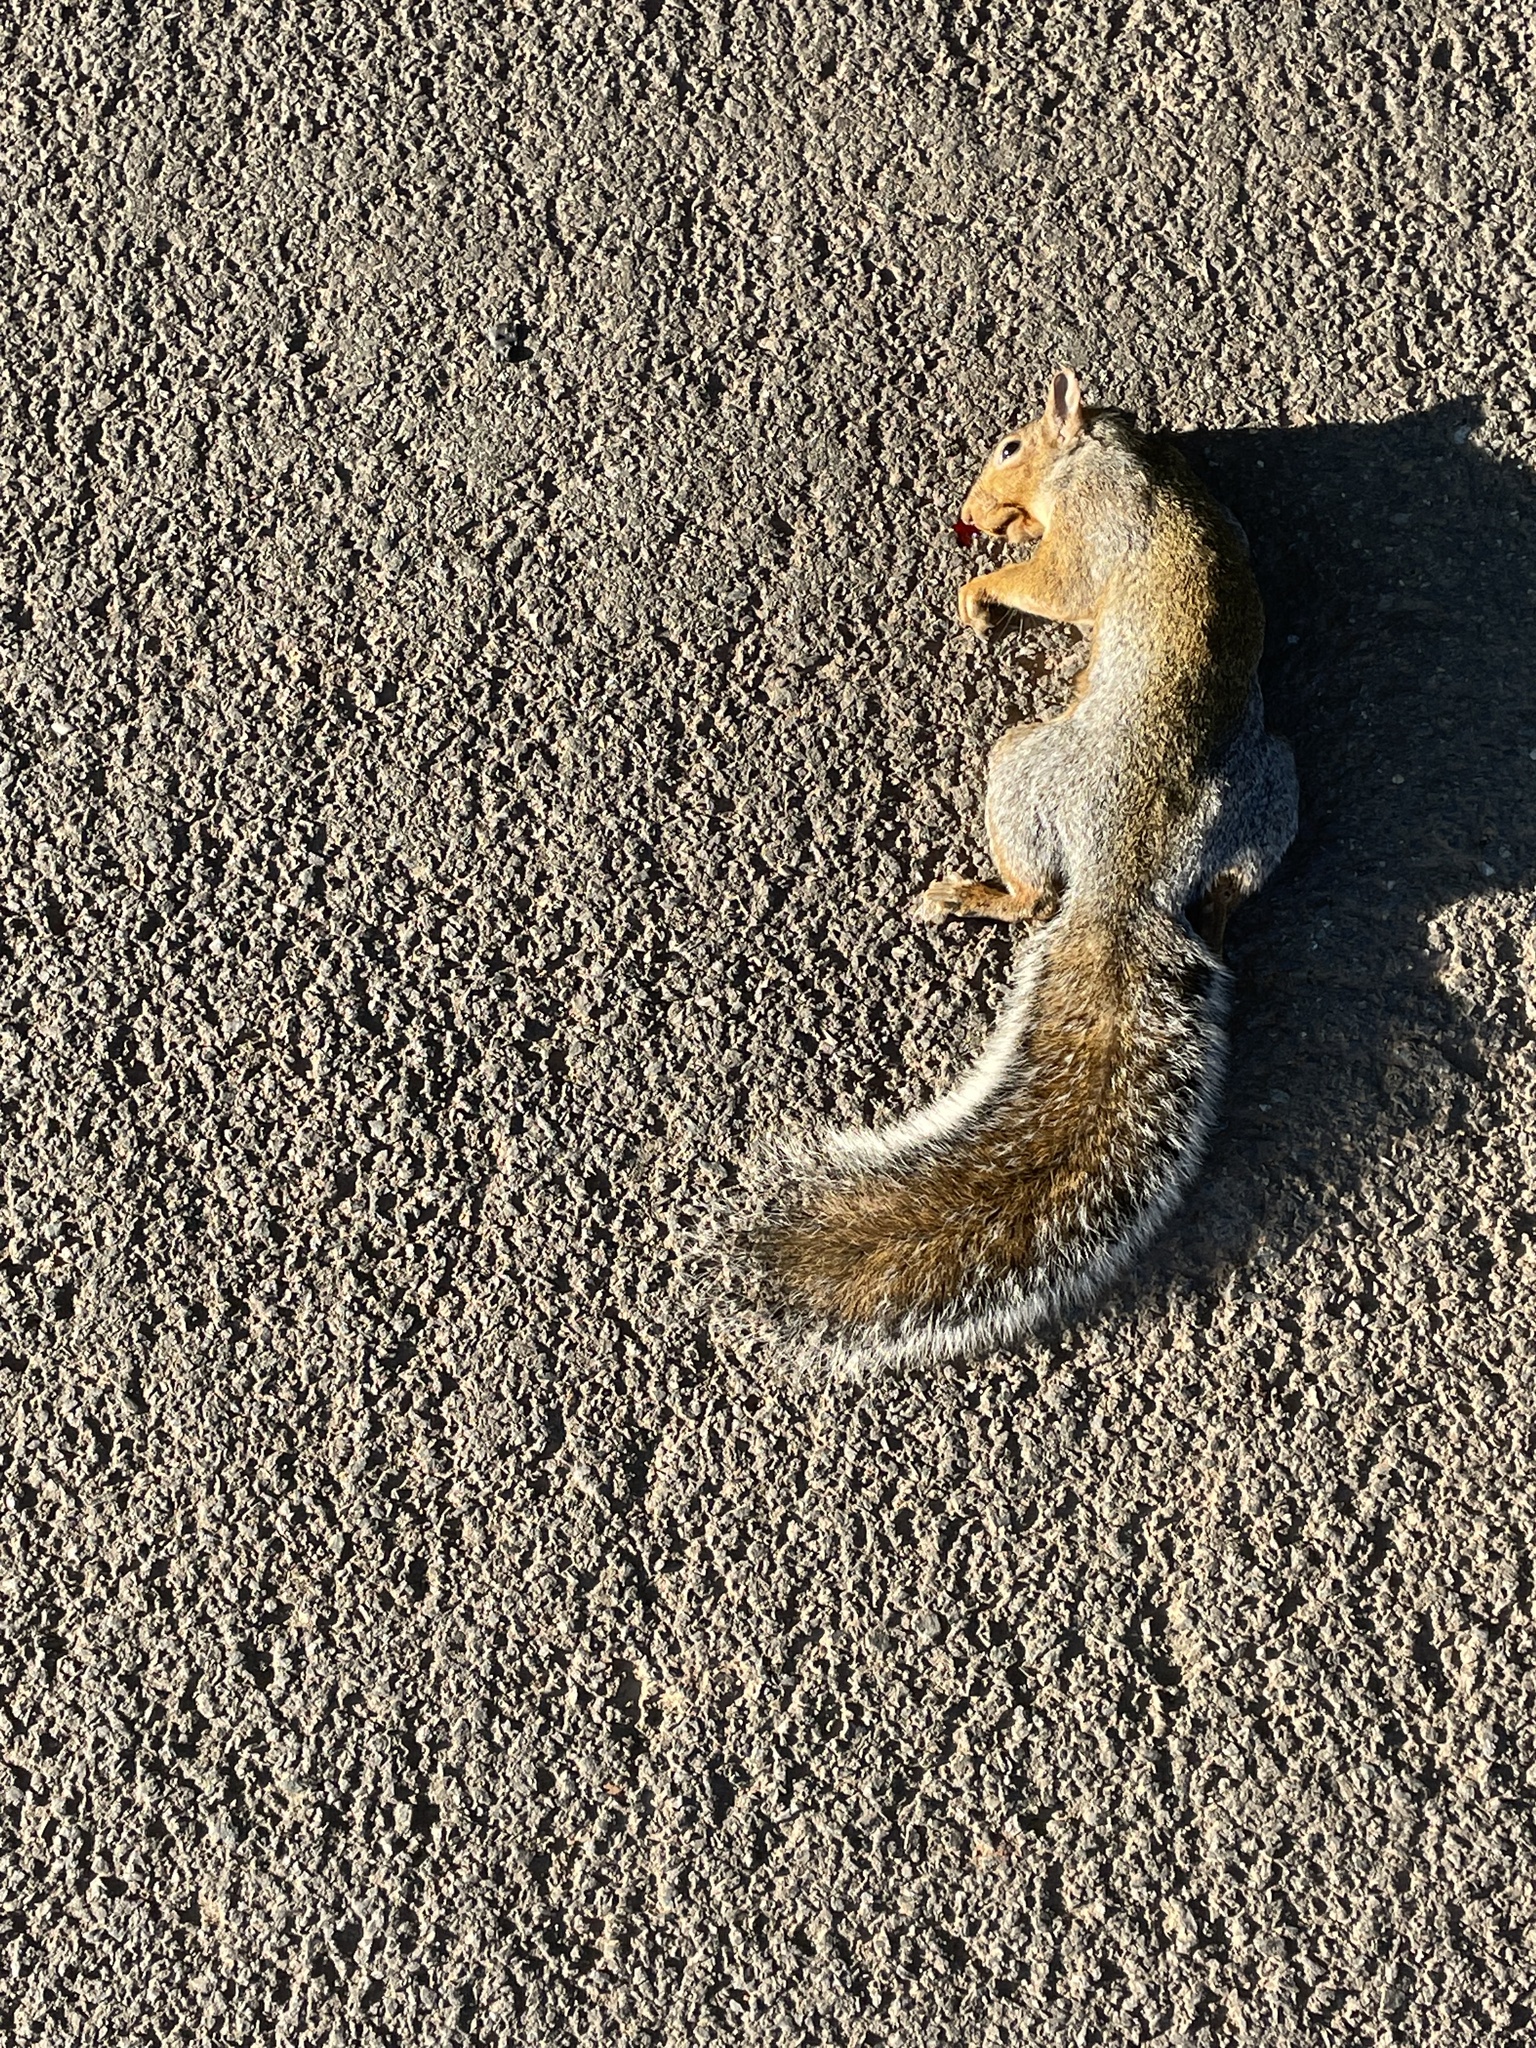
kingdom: Animalia
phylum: Chordata
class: Mammalia
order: Rodentia
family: Sciuridae
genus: Sciurus
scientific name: Sciurus carolinensis
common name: Eastern gray squirrel
